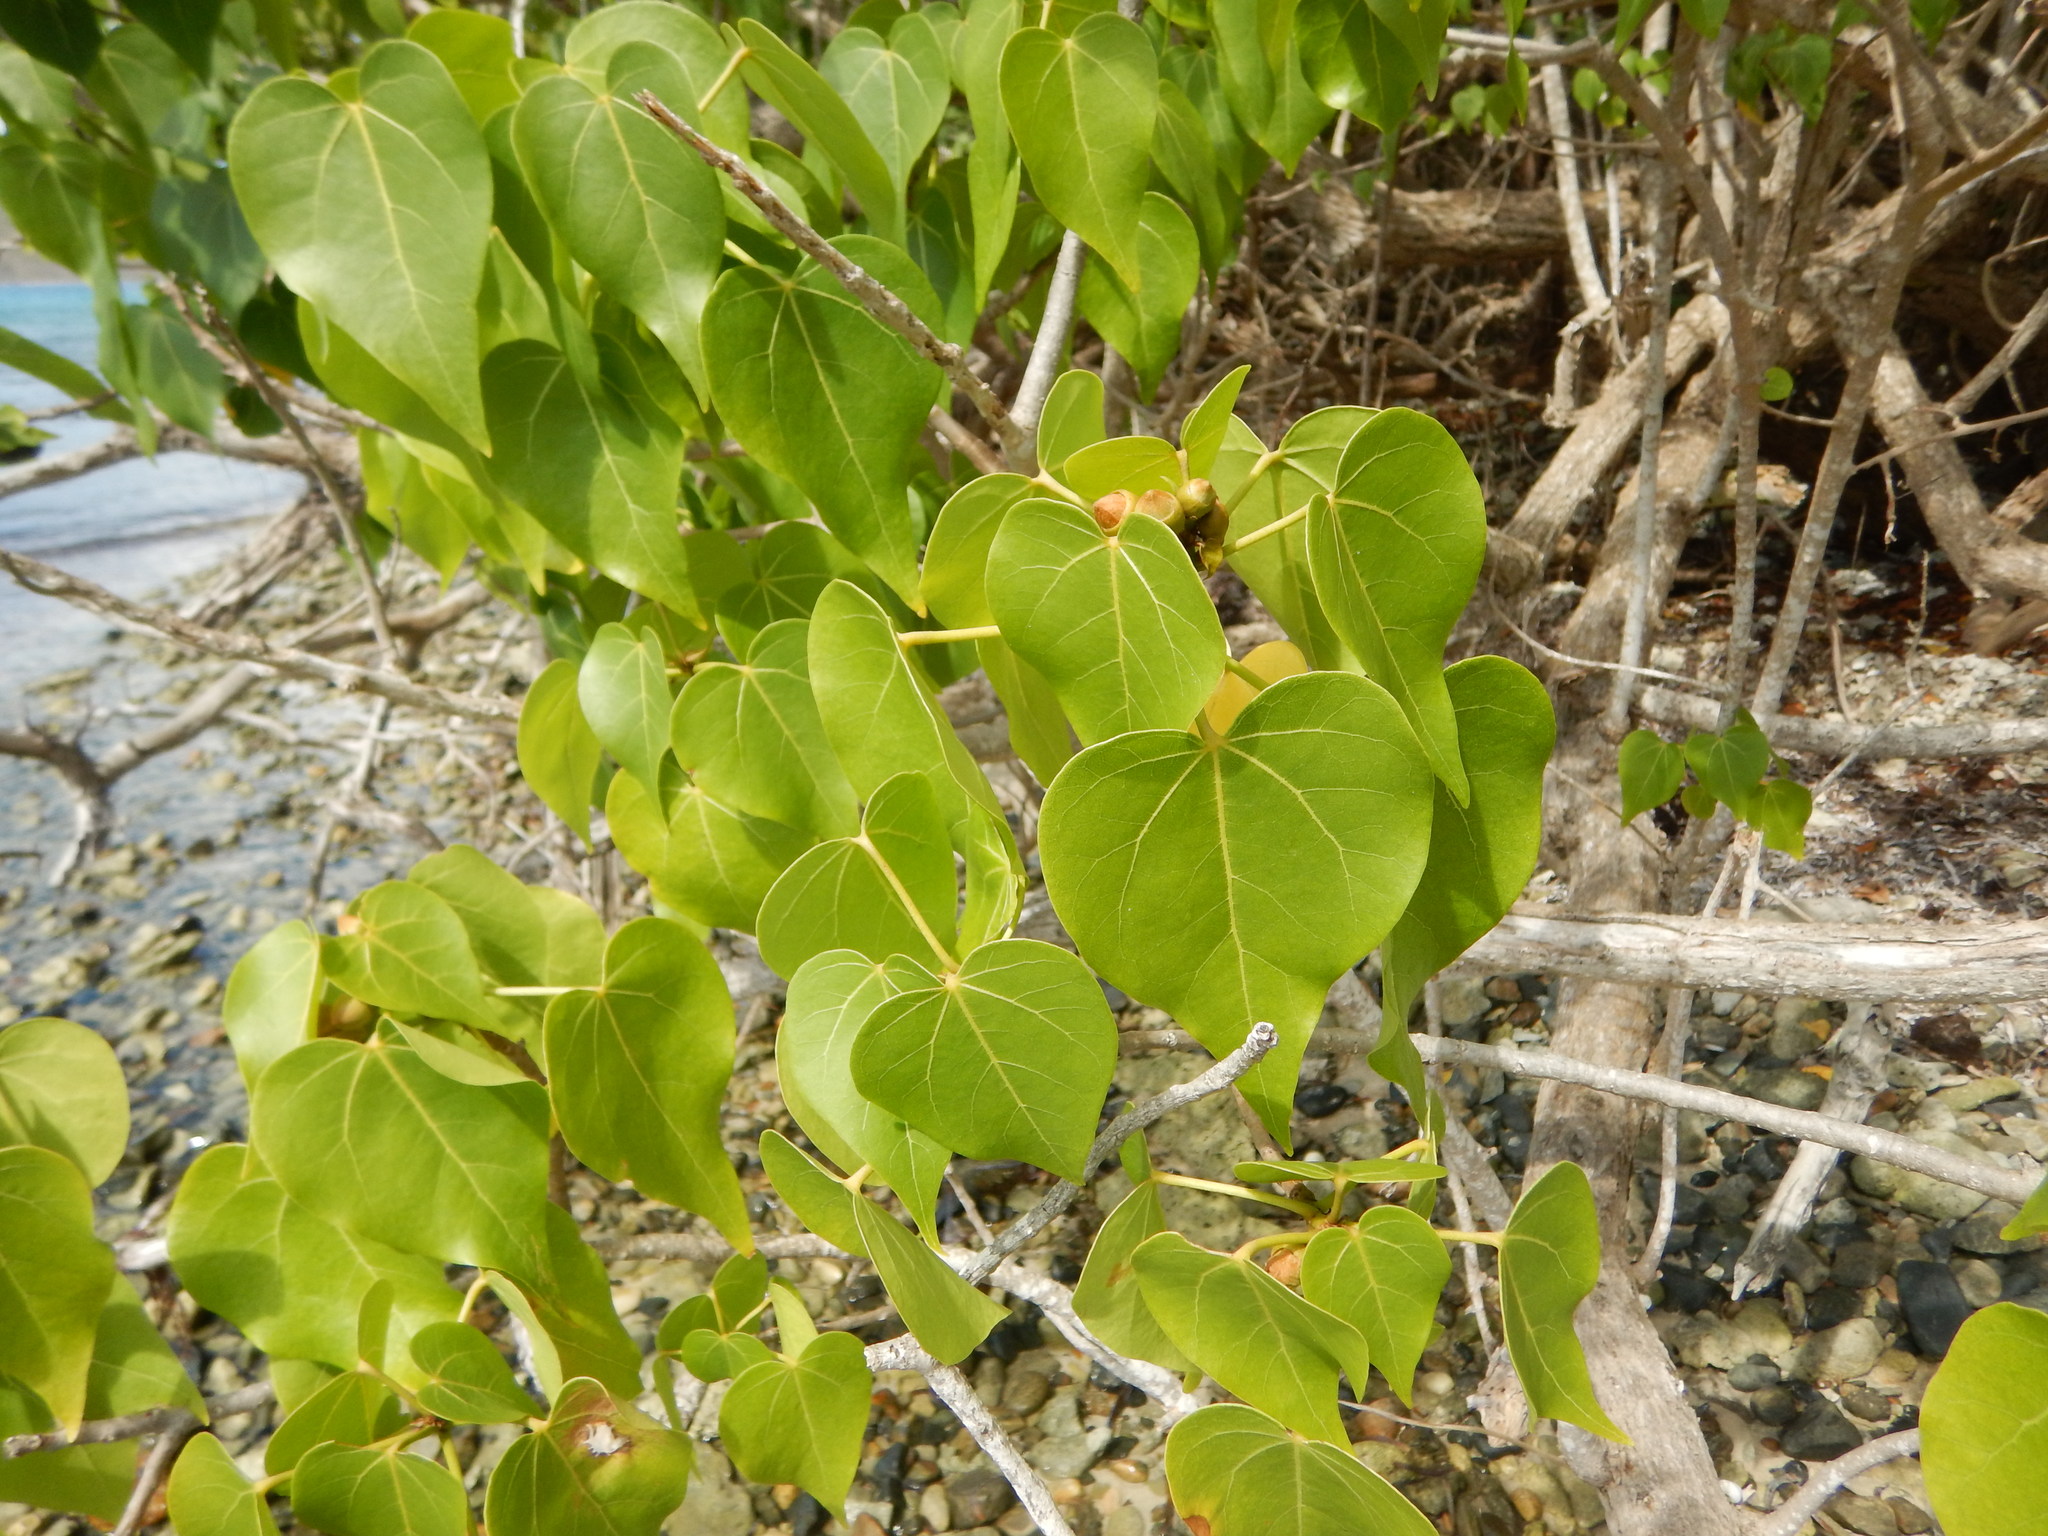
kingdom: Plantae
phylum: Tracheophyta
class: Magnoliopsida
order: Malvales
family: Malvaceae
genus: Thespesia
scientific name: Thespesia populnea
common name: Seaside mahoe
